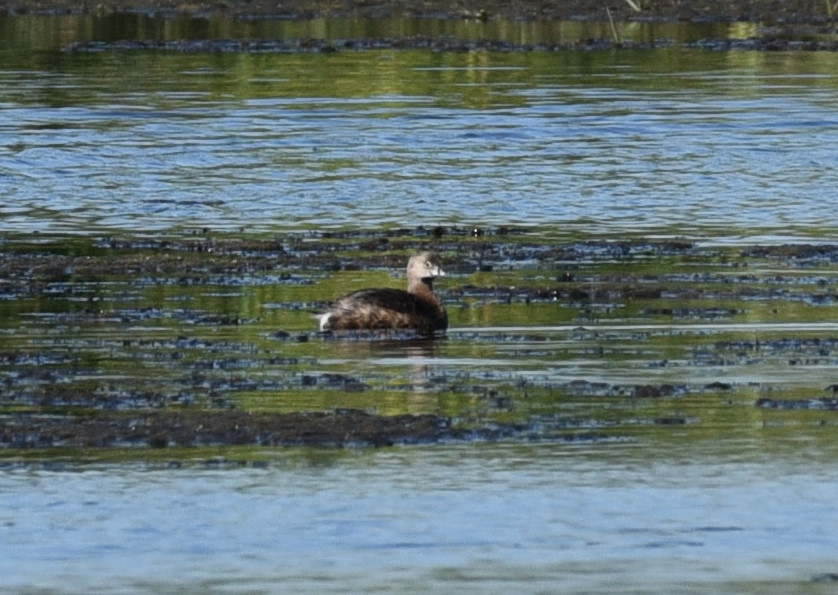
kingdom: Animalia
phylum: Chordata
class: Aves
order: Podicipediformes
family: Podicipedidae
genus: Podilymbus
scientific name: Podilymbus podiceps
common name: Pied-billed grebe
